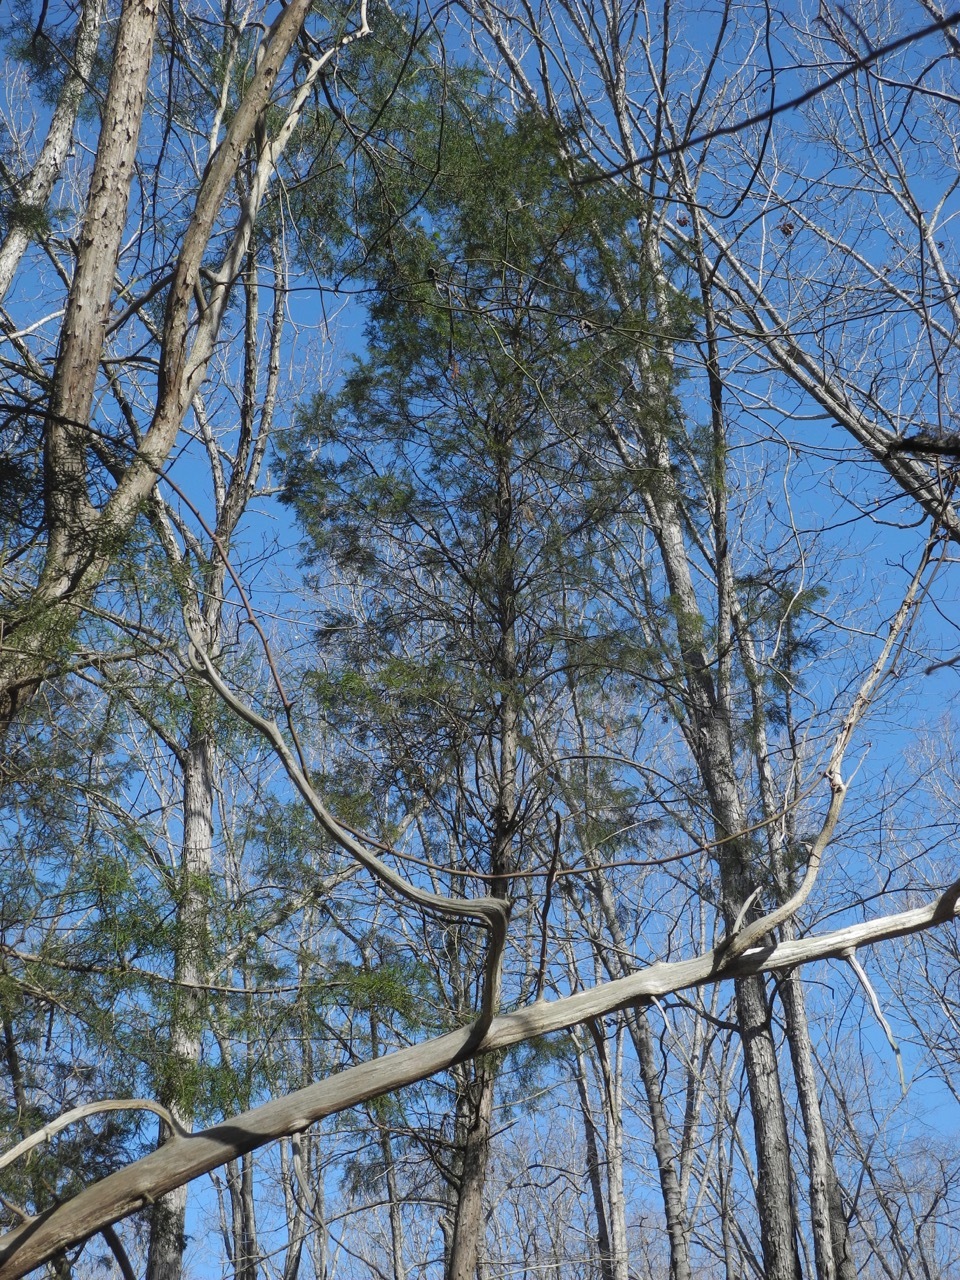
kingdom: Plantae
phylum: Tracheophyta
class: Pinopsida
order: Pinales
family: Cupressaceae
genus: Juniperus
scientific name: Juniperus virginiana
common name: Red juniper
